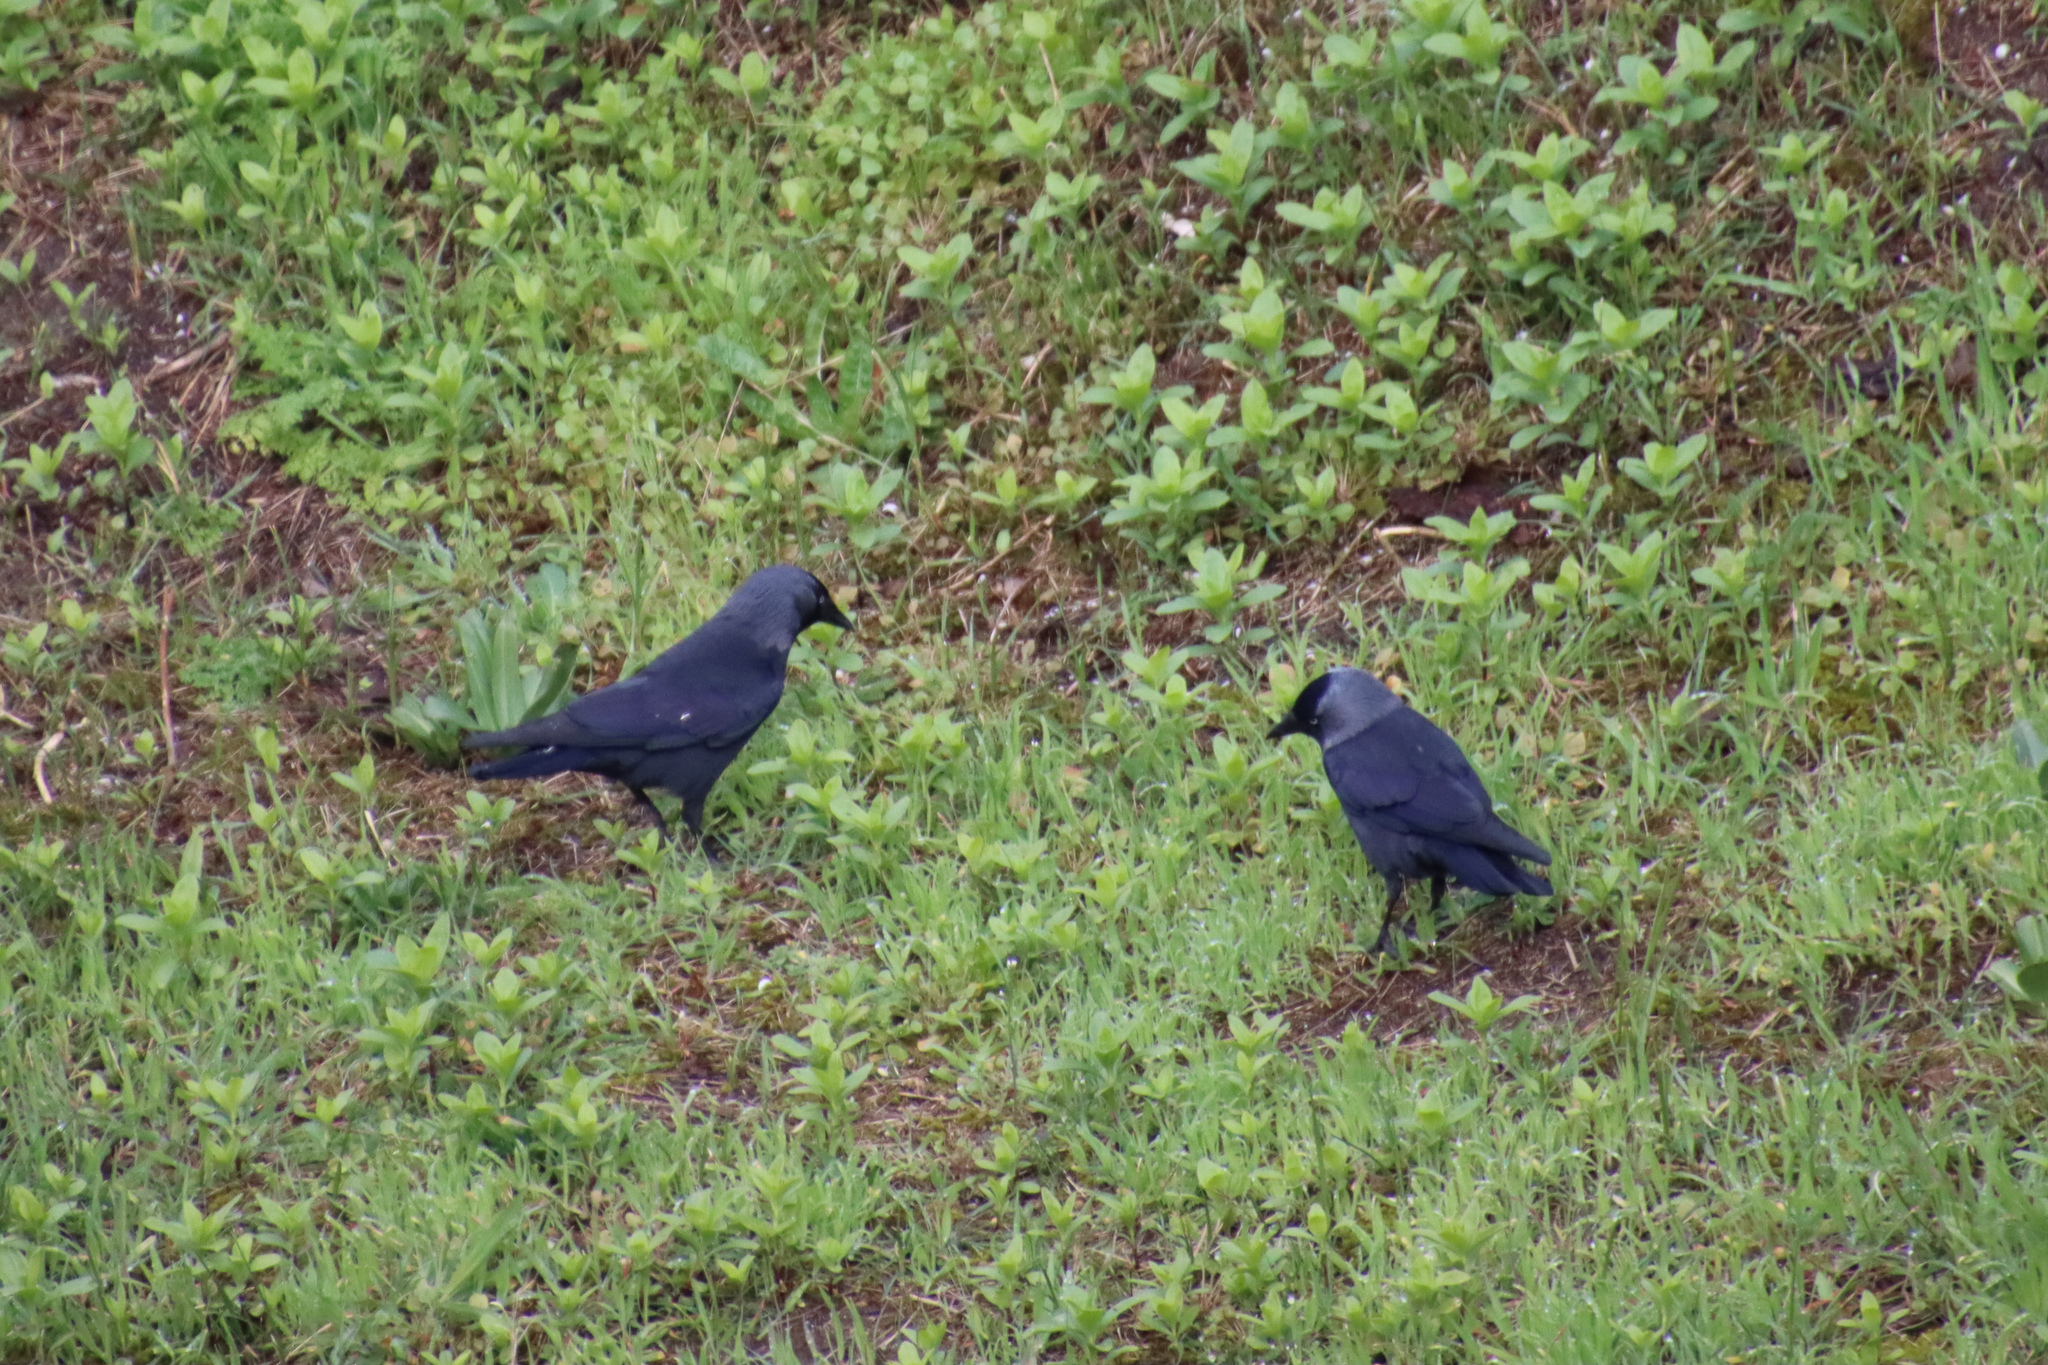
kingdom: Animalia
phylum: Chordata
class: Aves
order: Passeriformes
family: Corvidae
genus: Coloeus
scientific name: Coloeus monedula
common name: Western jackdaw
